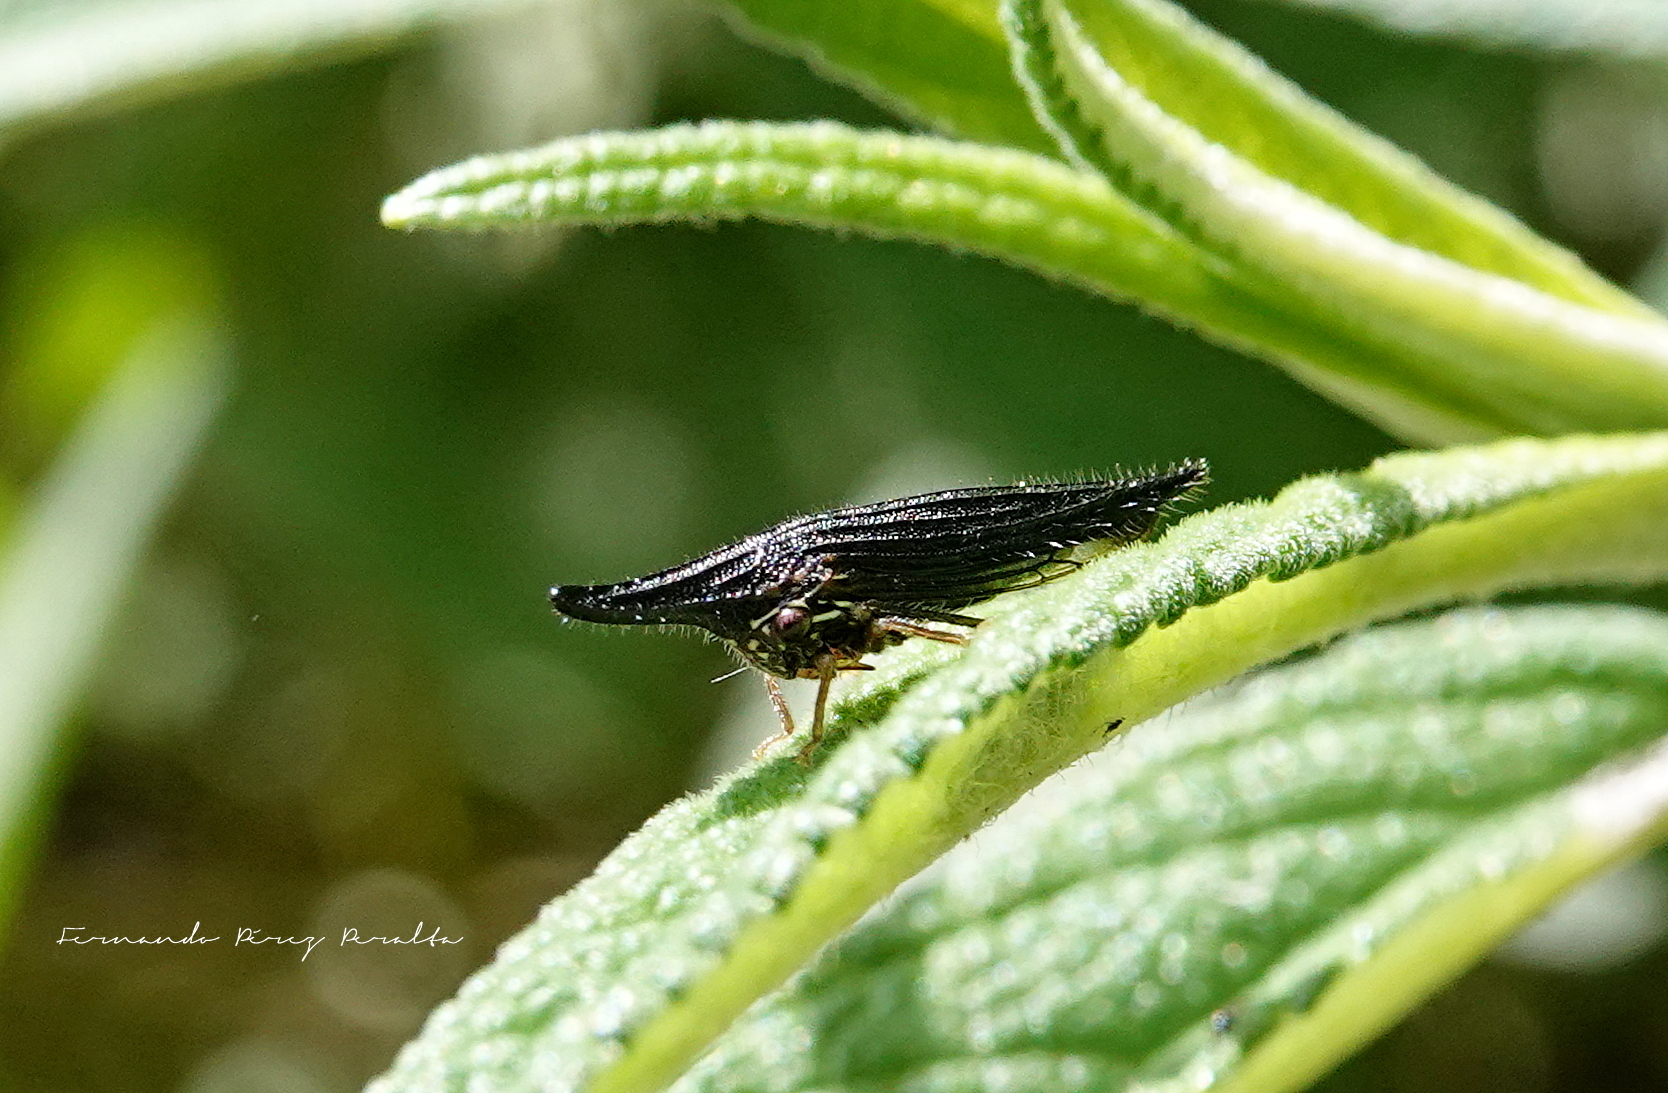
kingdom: Animalia
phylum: Arthropoda
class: Insecta
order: Hemiptera
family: Membracidae
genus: Polyglypta
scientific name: Polyglypta
